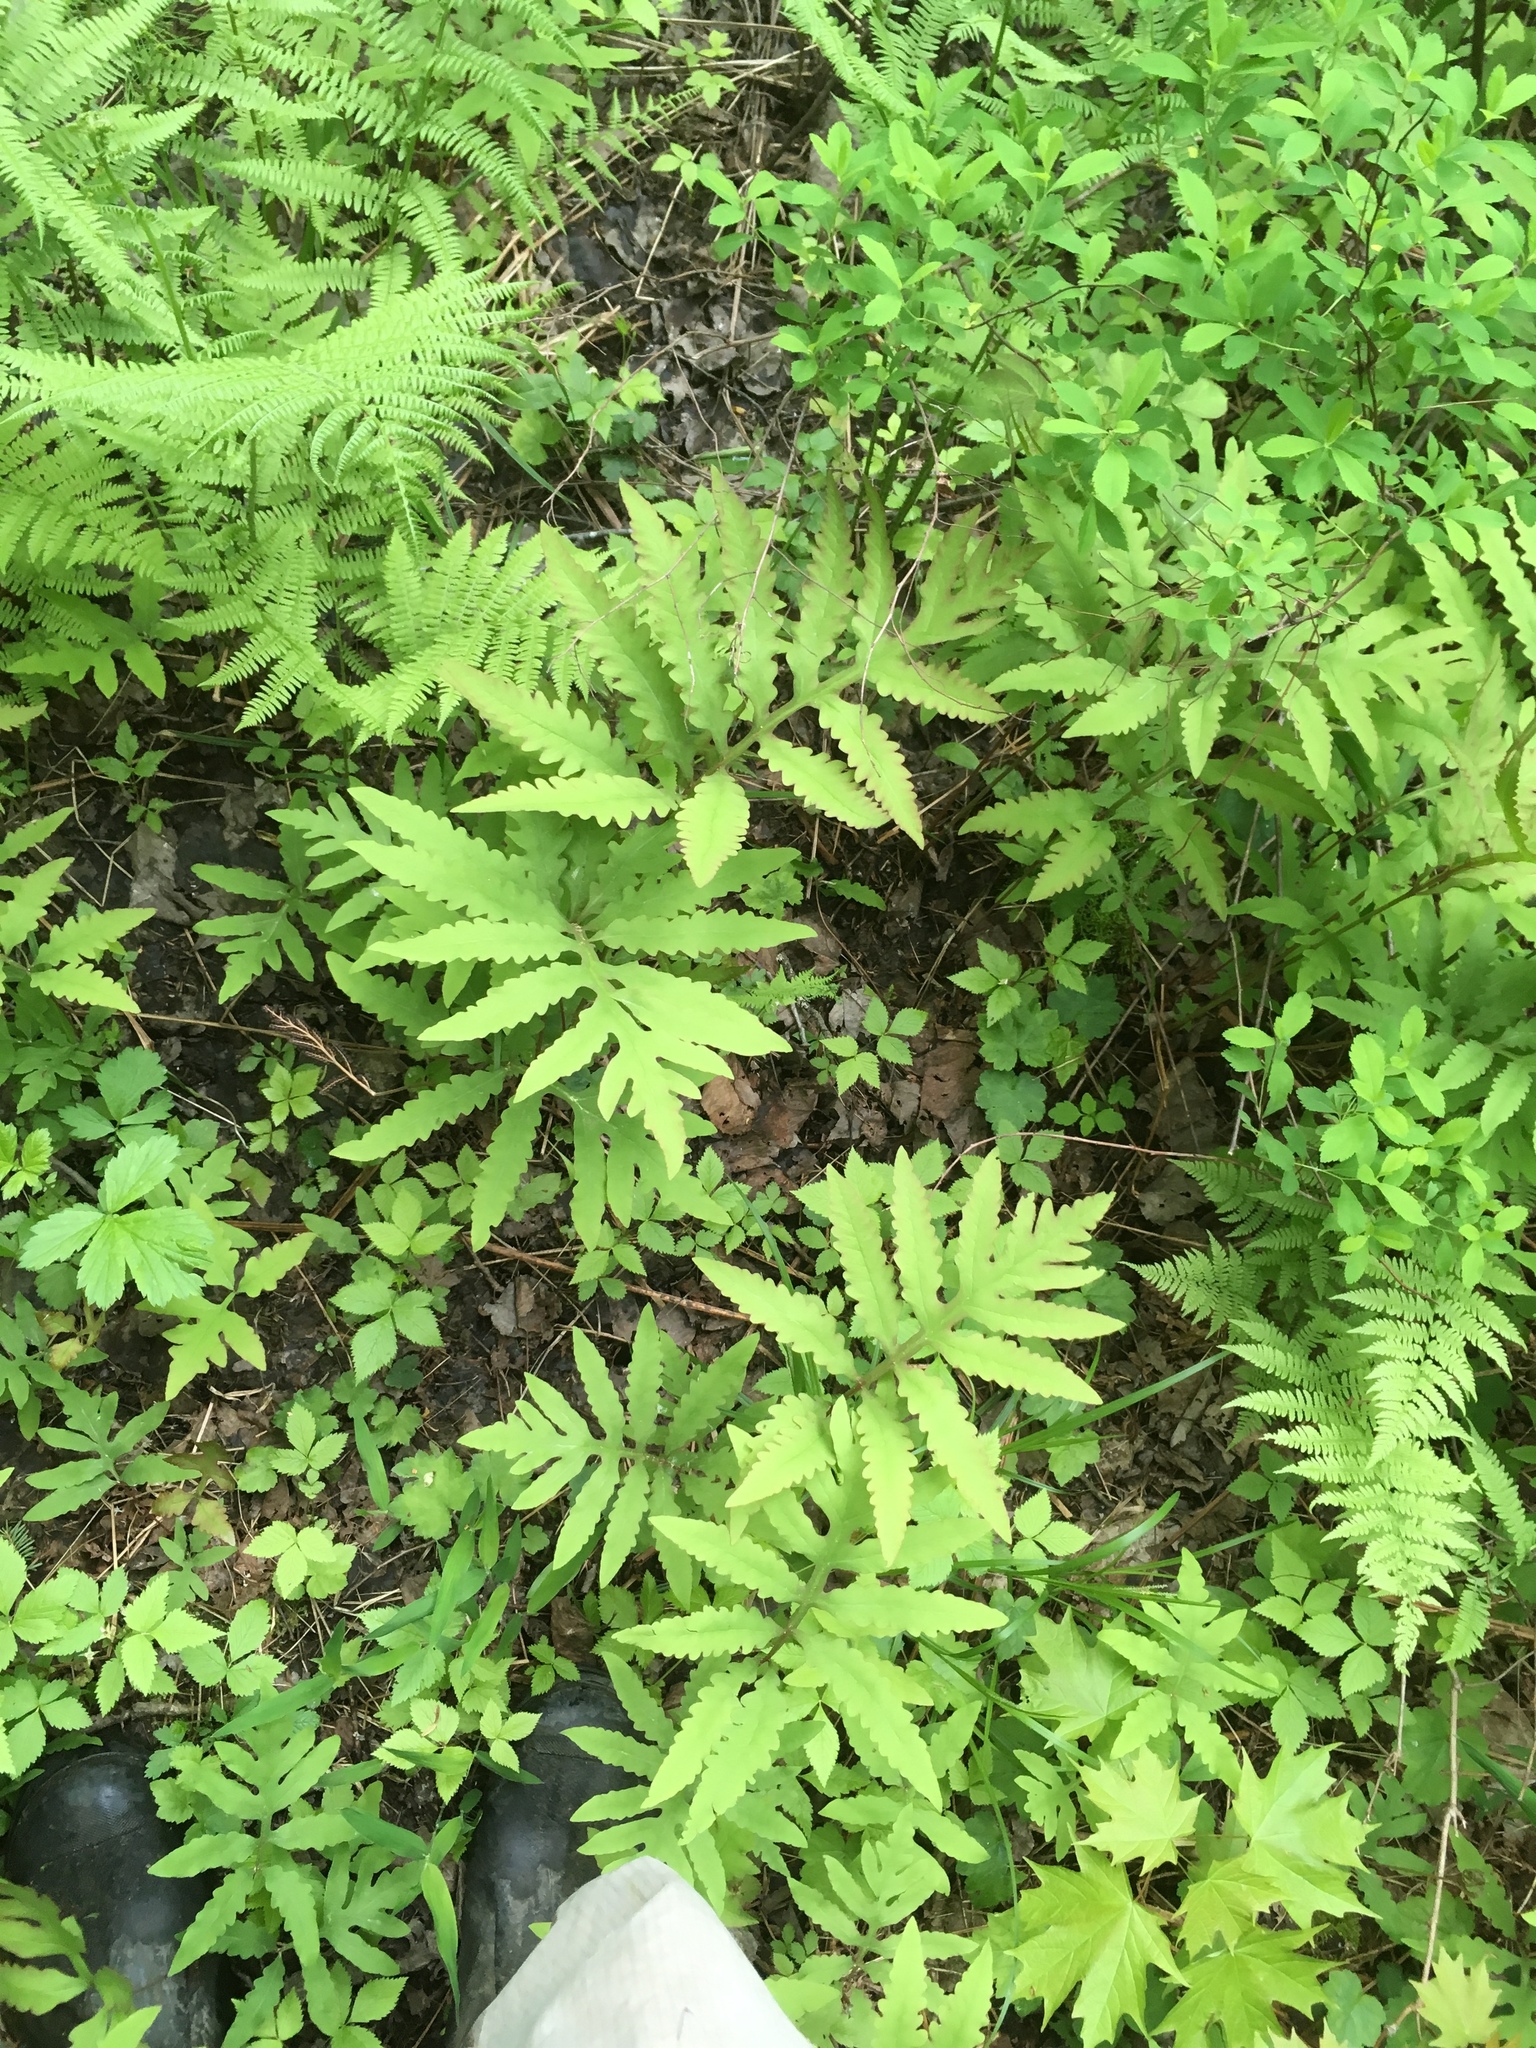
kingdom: Plantae
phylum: Tracheophyta
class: Polypodiopsida
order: Polypodiales
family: Onocleaceae
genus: Onoclea
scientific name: Onoclea sensibilis
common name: Sensitive fern
